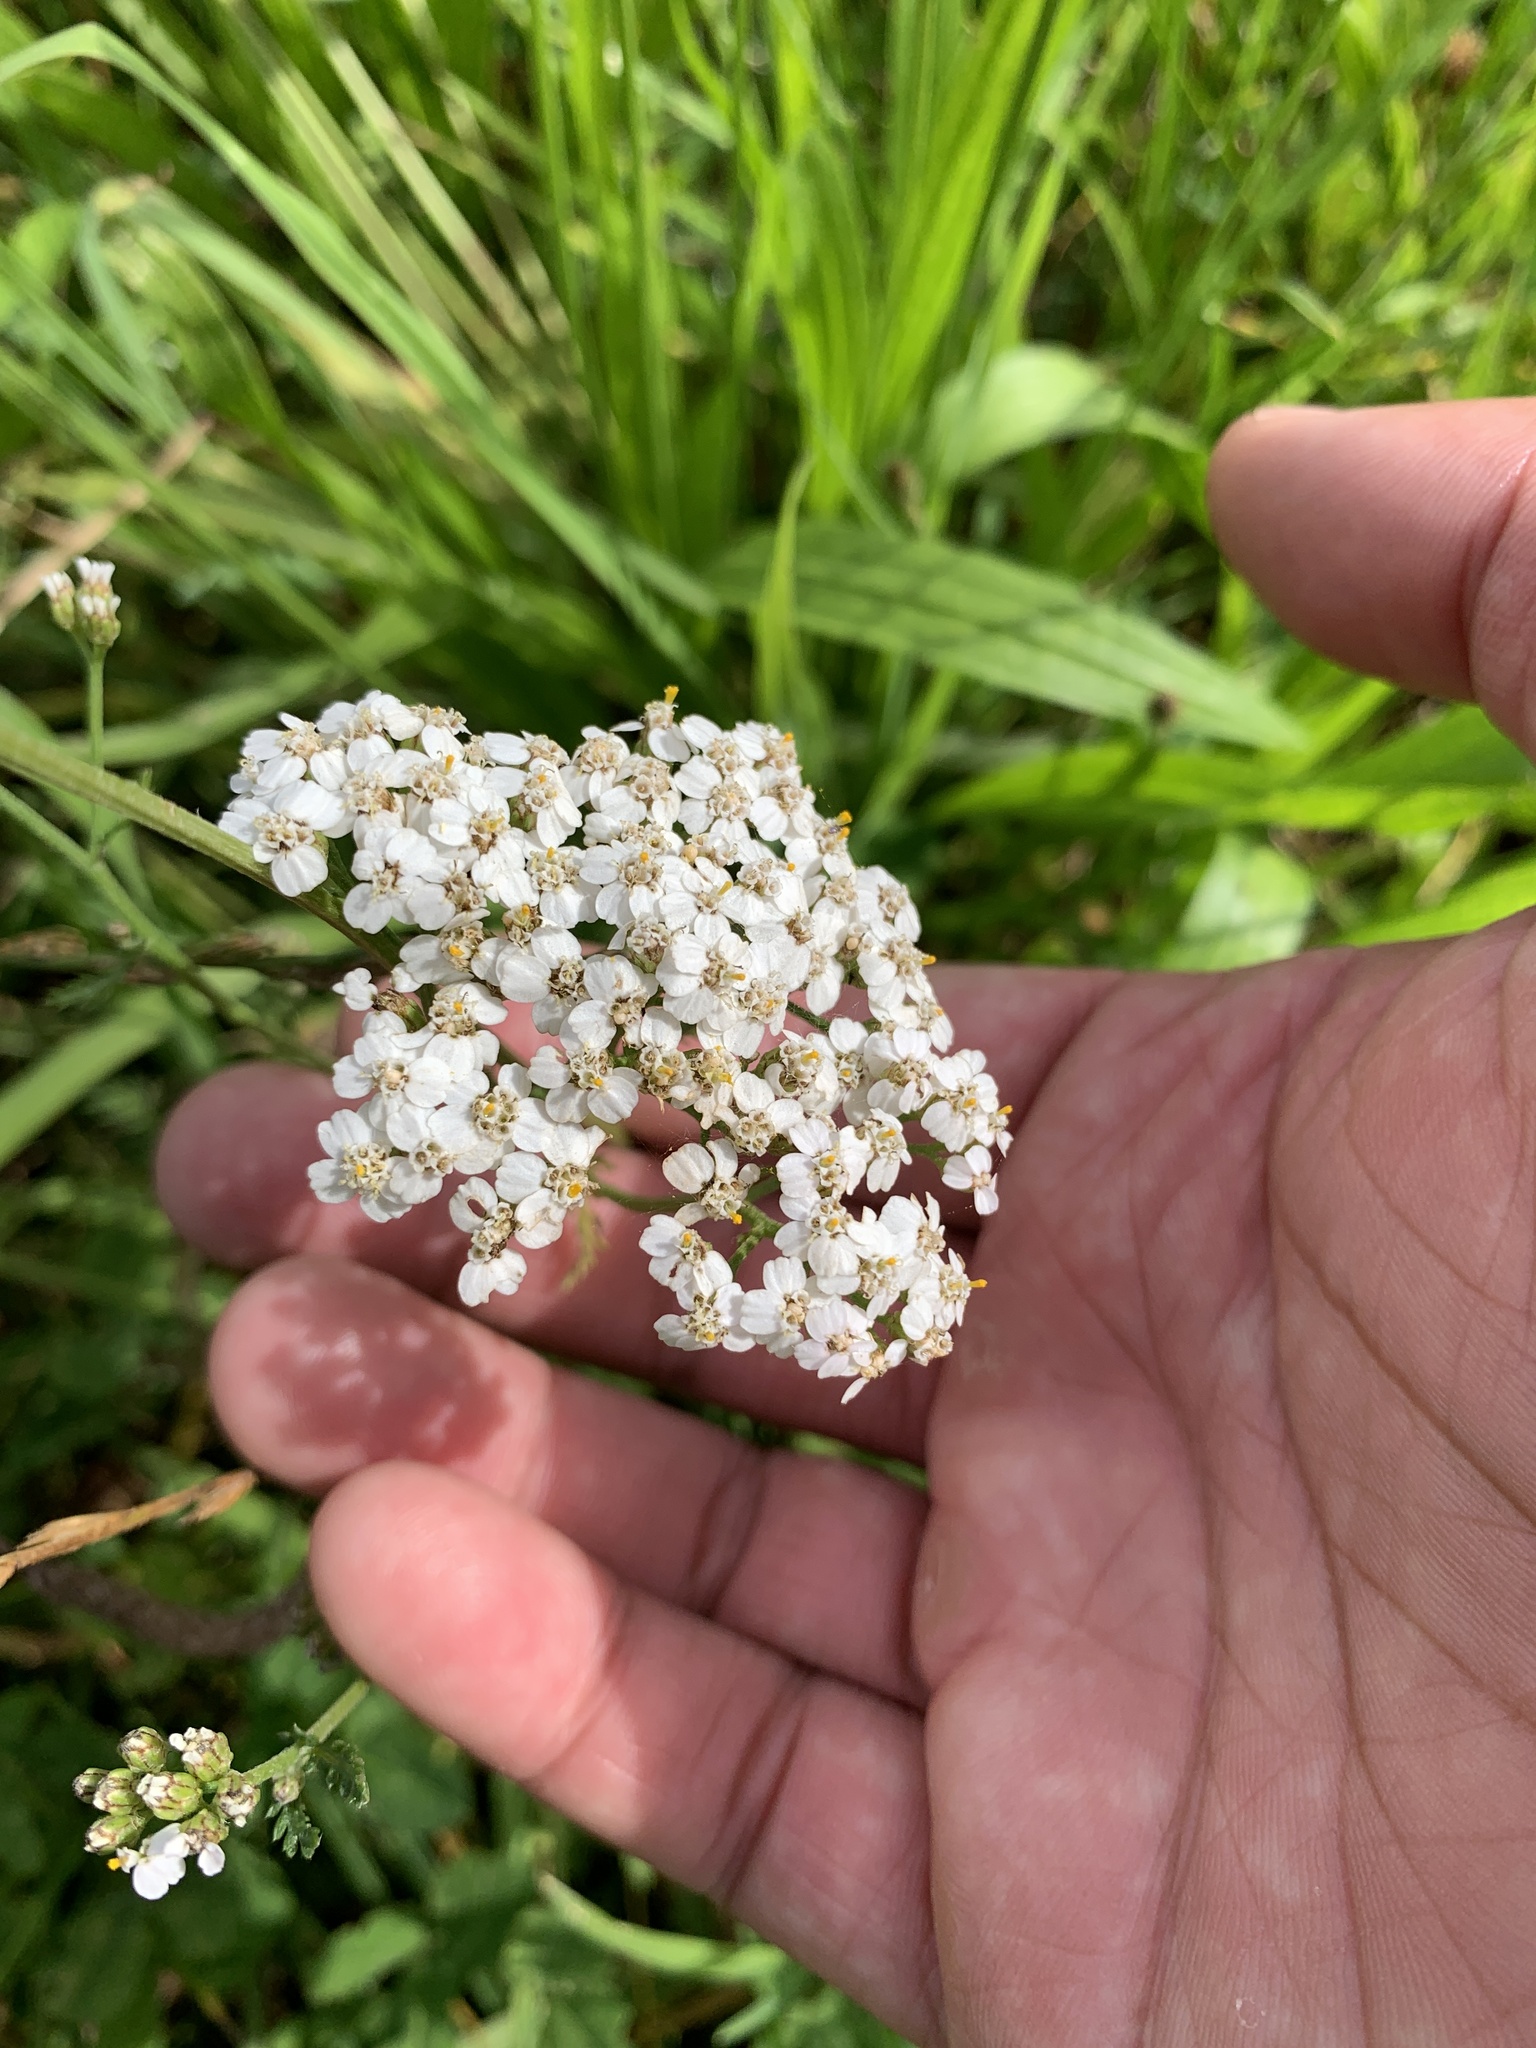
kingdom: Plantae
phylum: Tracheophyta
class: Magnoliopsida
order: Asterales
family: Asteraceae
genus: Achillea
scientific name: Achillea millefolium
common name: Yarrow
